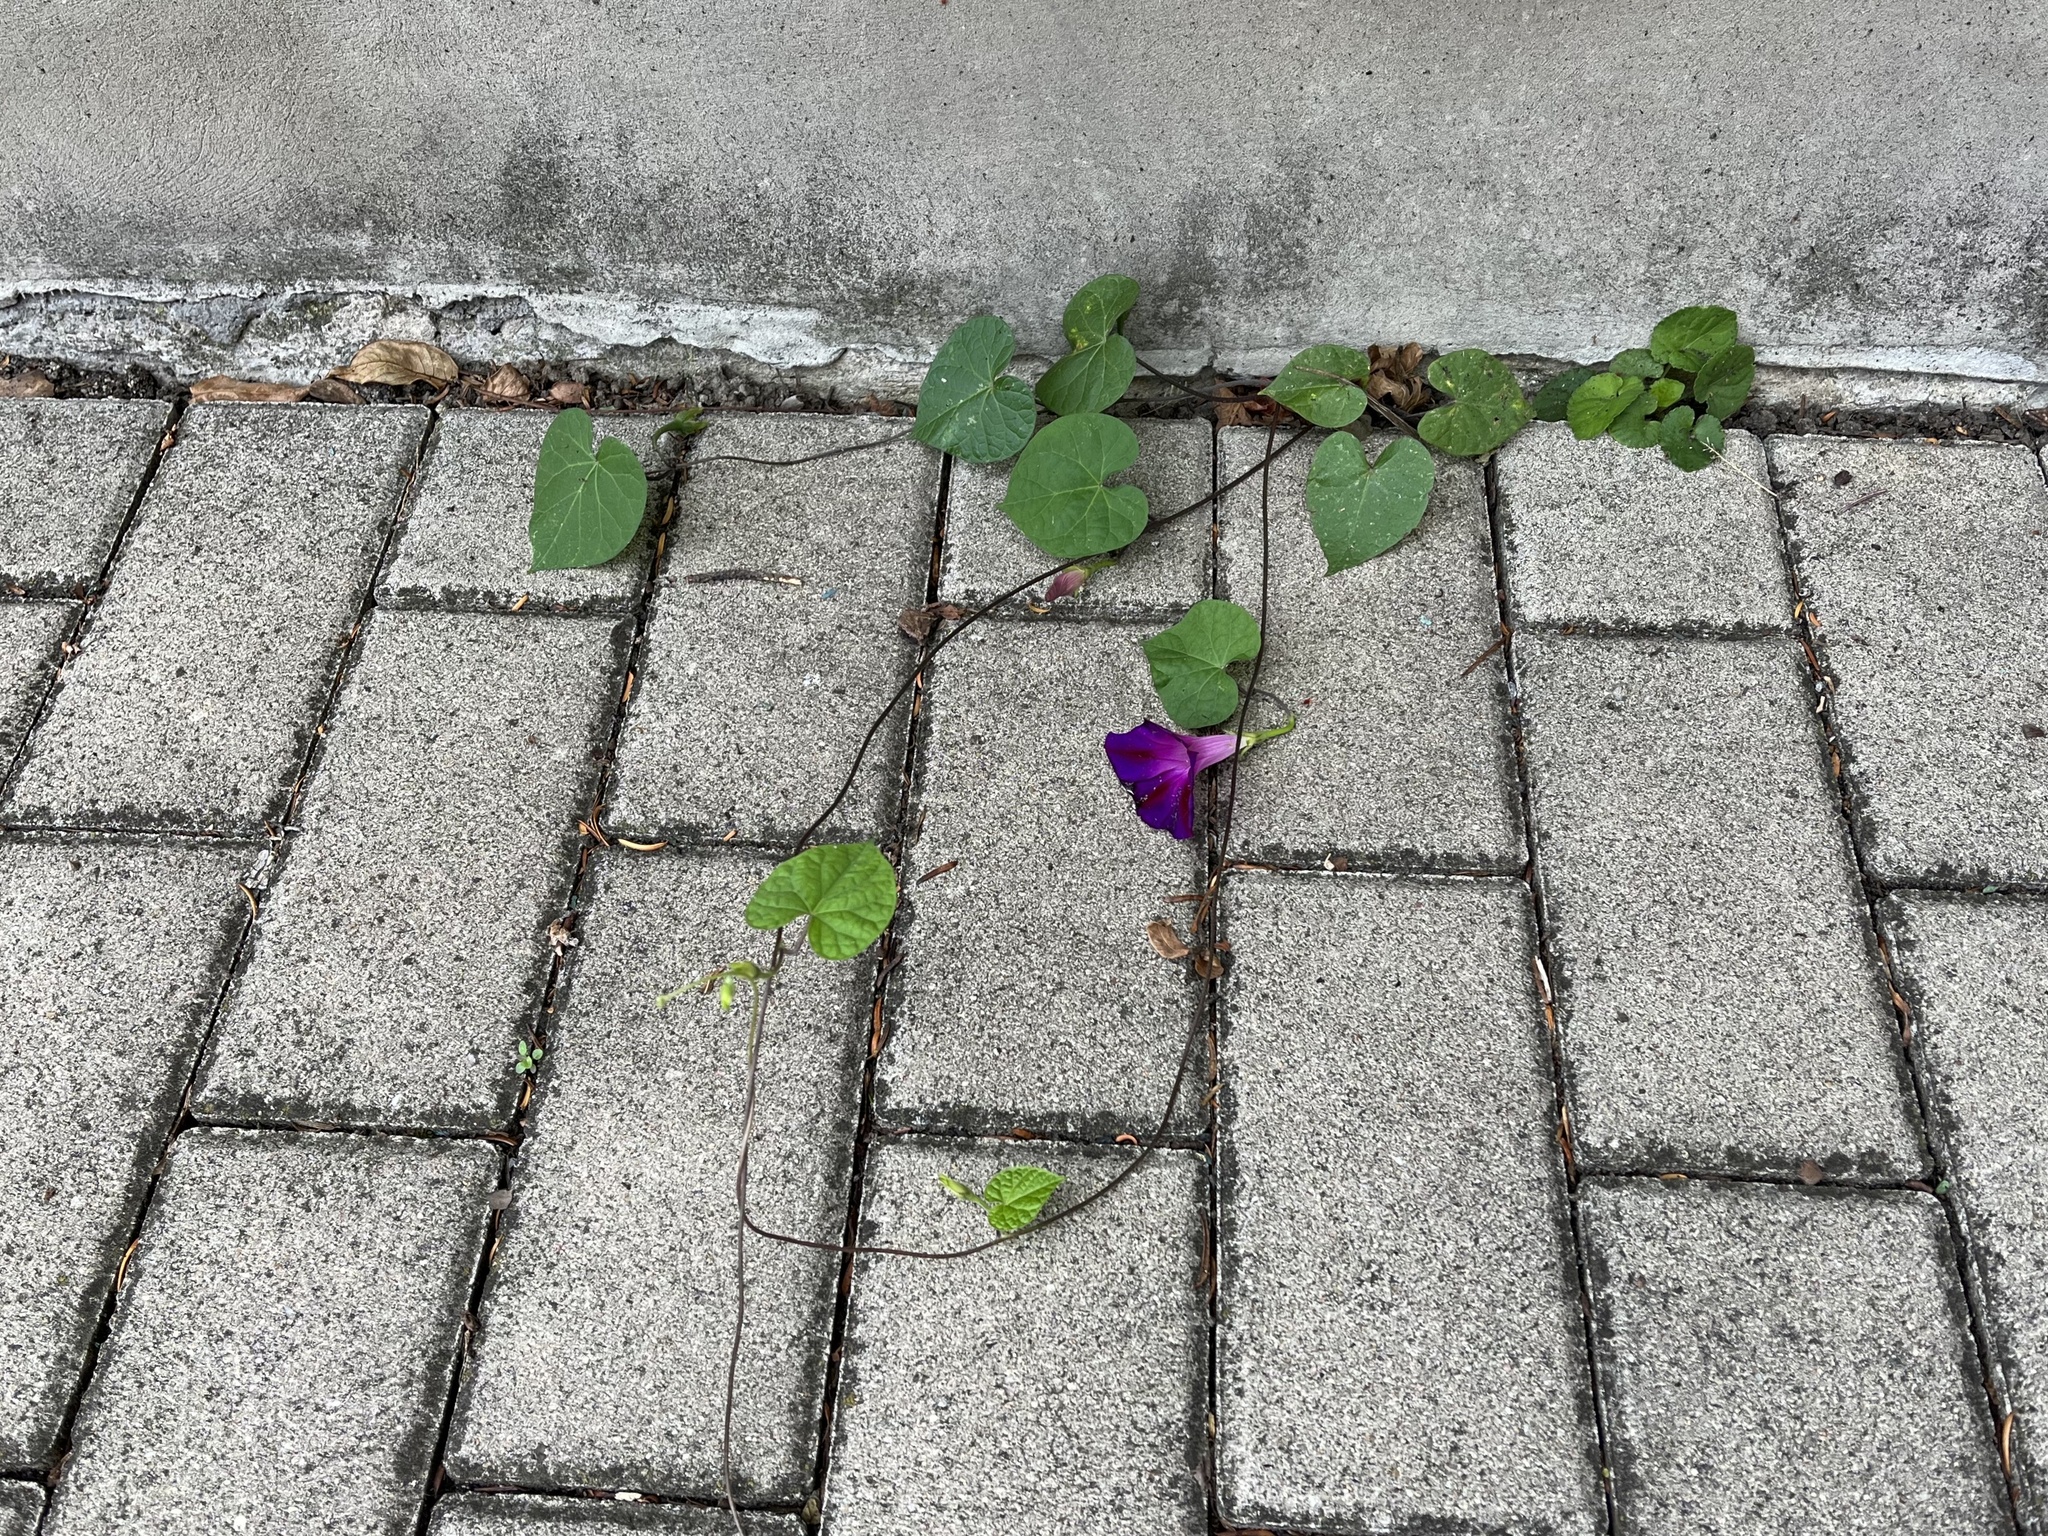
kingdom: Plantae
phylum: Tracheophyta
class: Magnoliopsida
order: Solanales
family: Convolvulaceae
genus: Ipomoea
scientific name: Ipomoea purpurea
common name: Common morning-glory
